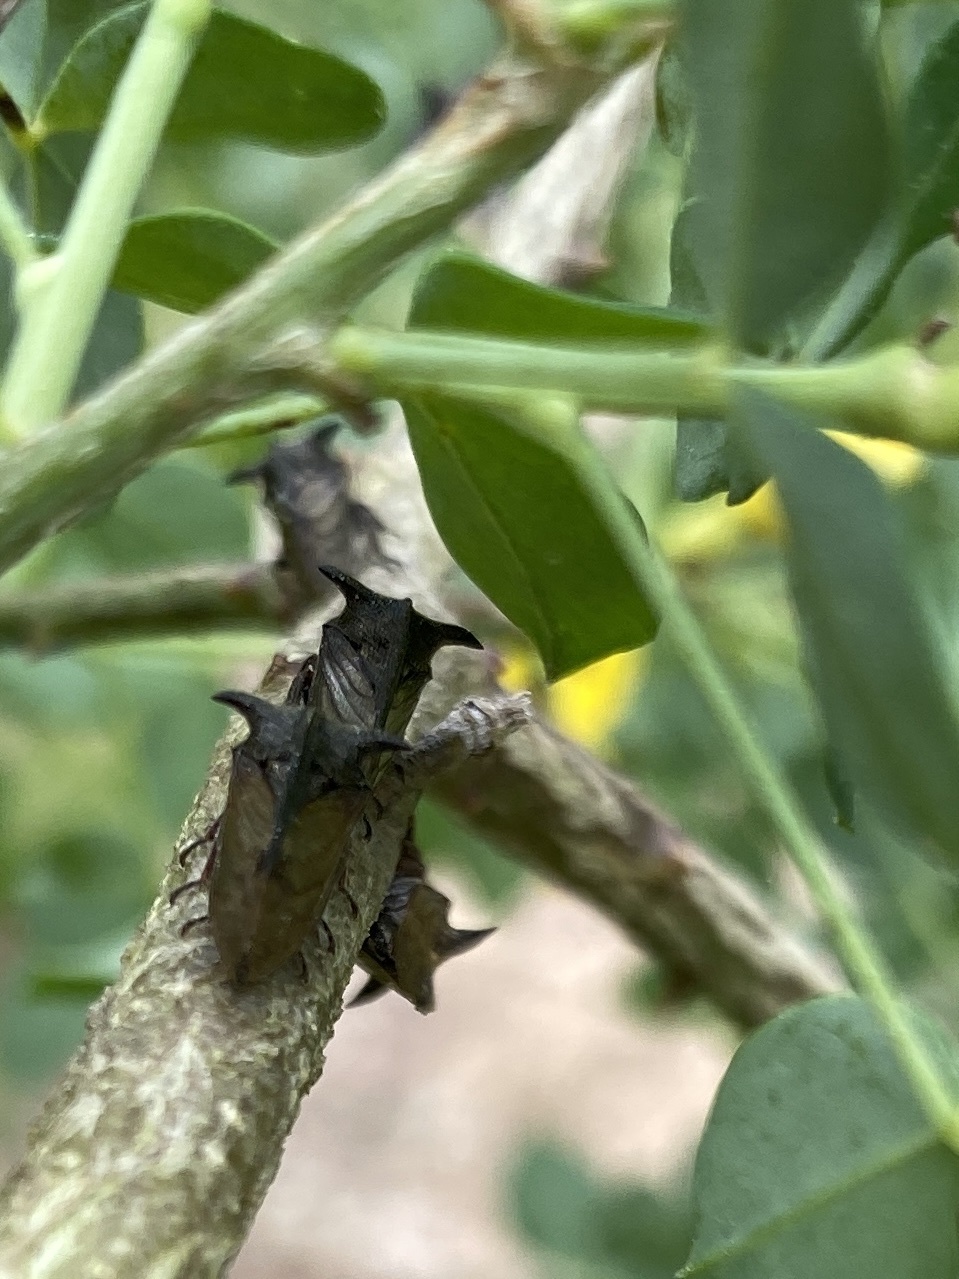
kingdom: Animalia
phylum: Arthropoda
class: Insecta
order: Hemiptera
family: Membracidae
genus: Centrotus
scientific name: Centrotus cornuta
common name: Treehopper
